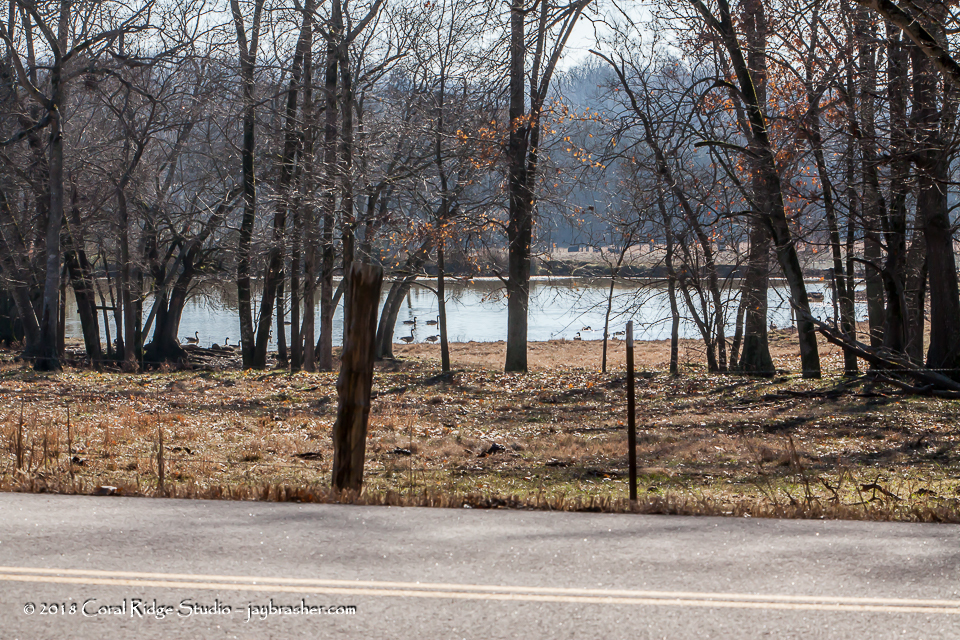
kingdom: Animalia
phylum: Chordata
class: Aves
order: Anseriformes
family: Anatidae
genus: Branta
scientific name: Branta canadensis
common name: Canada goose
